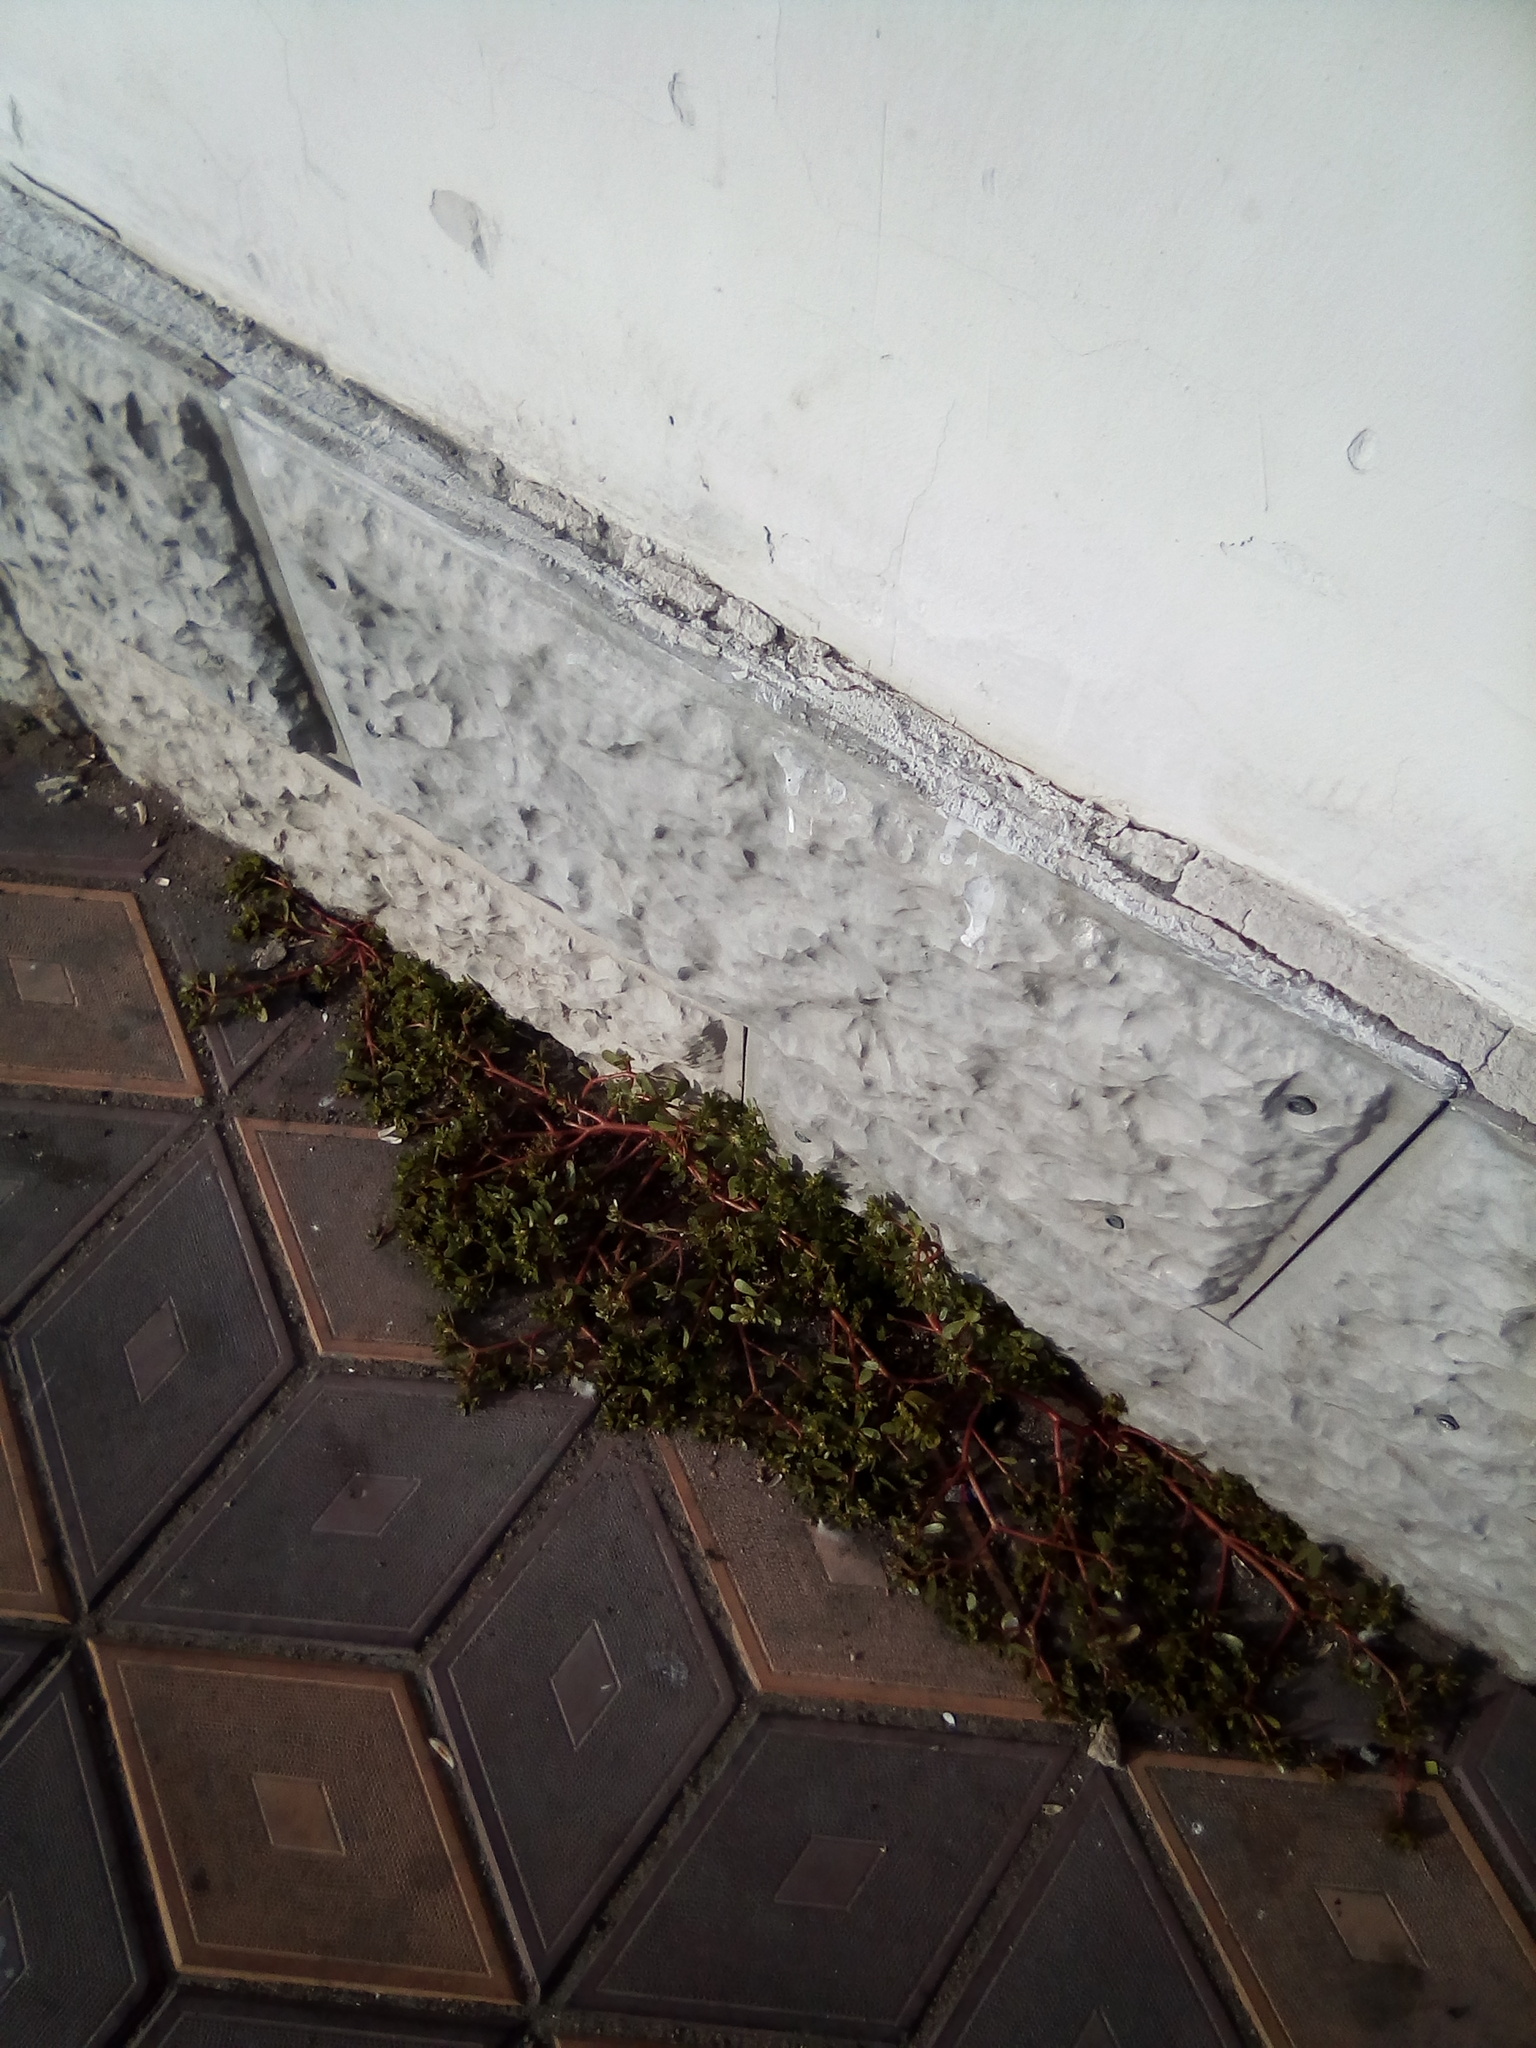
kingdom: Plantae
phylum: Tracheophyta
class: Magnoliopsida
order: Caryophyllales
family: Portulacaceae
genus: Portulaca
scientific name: Portulaca oleracea
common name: Common purslane
